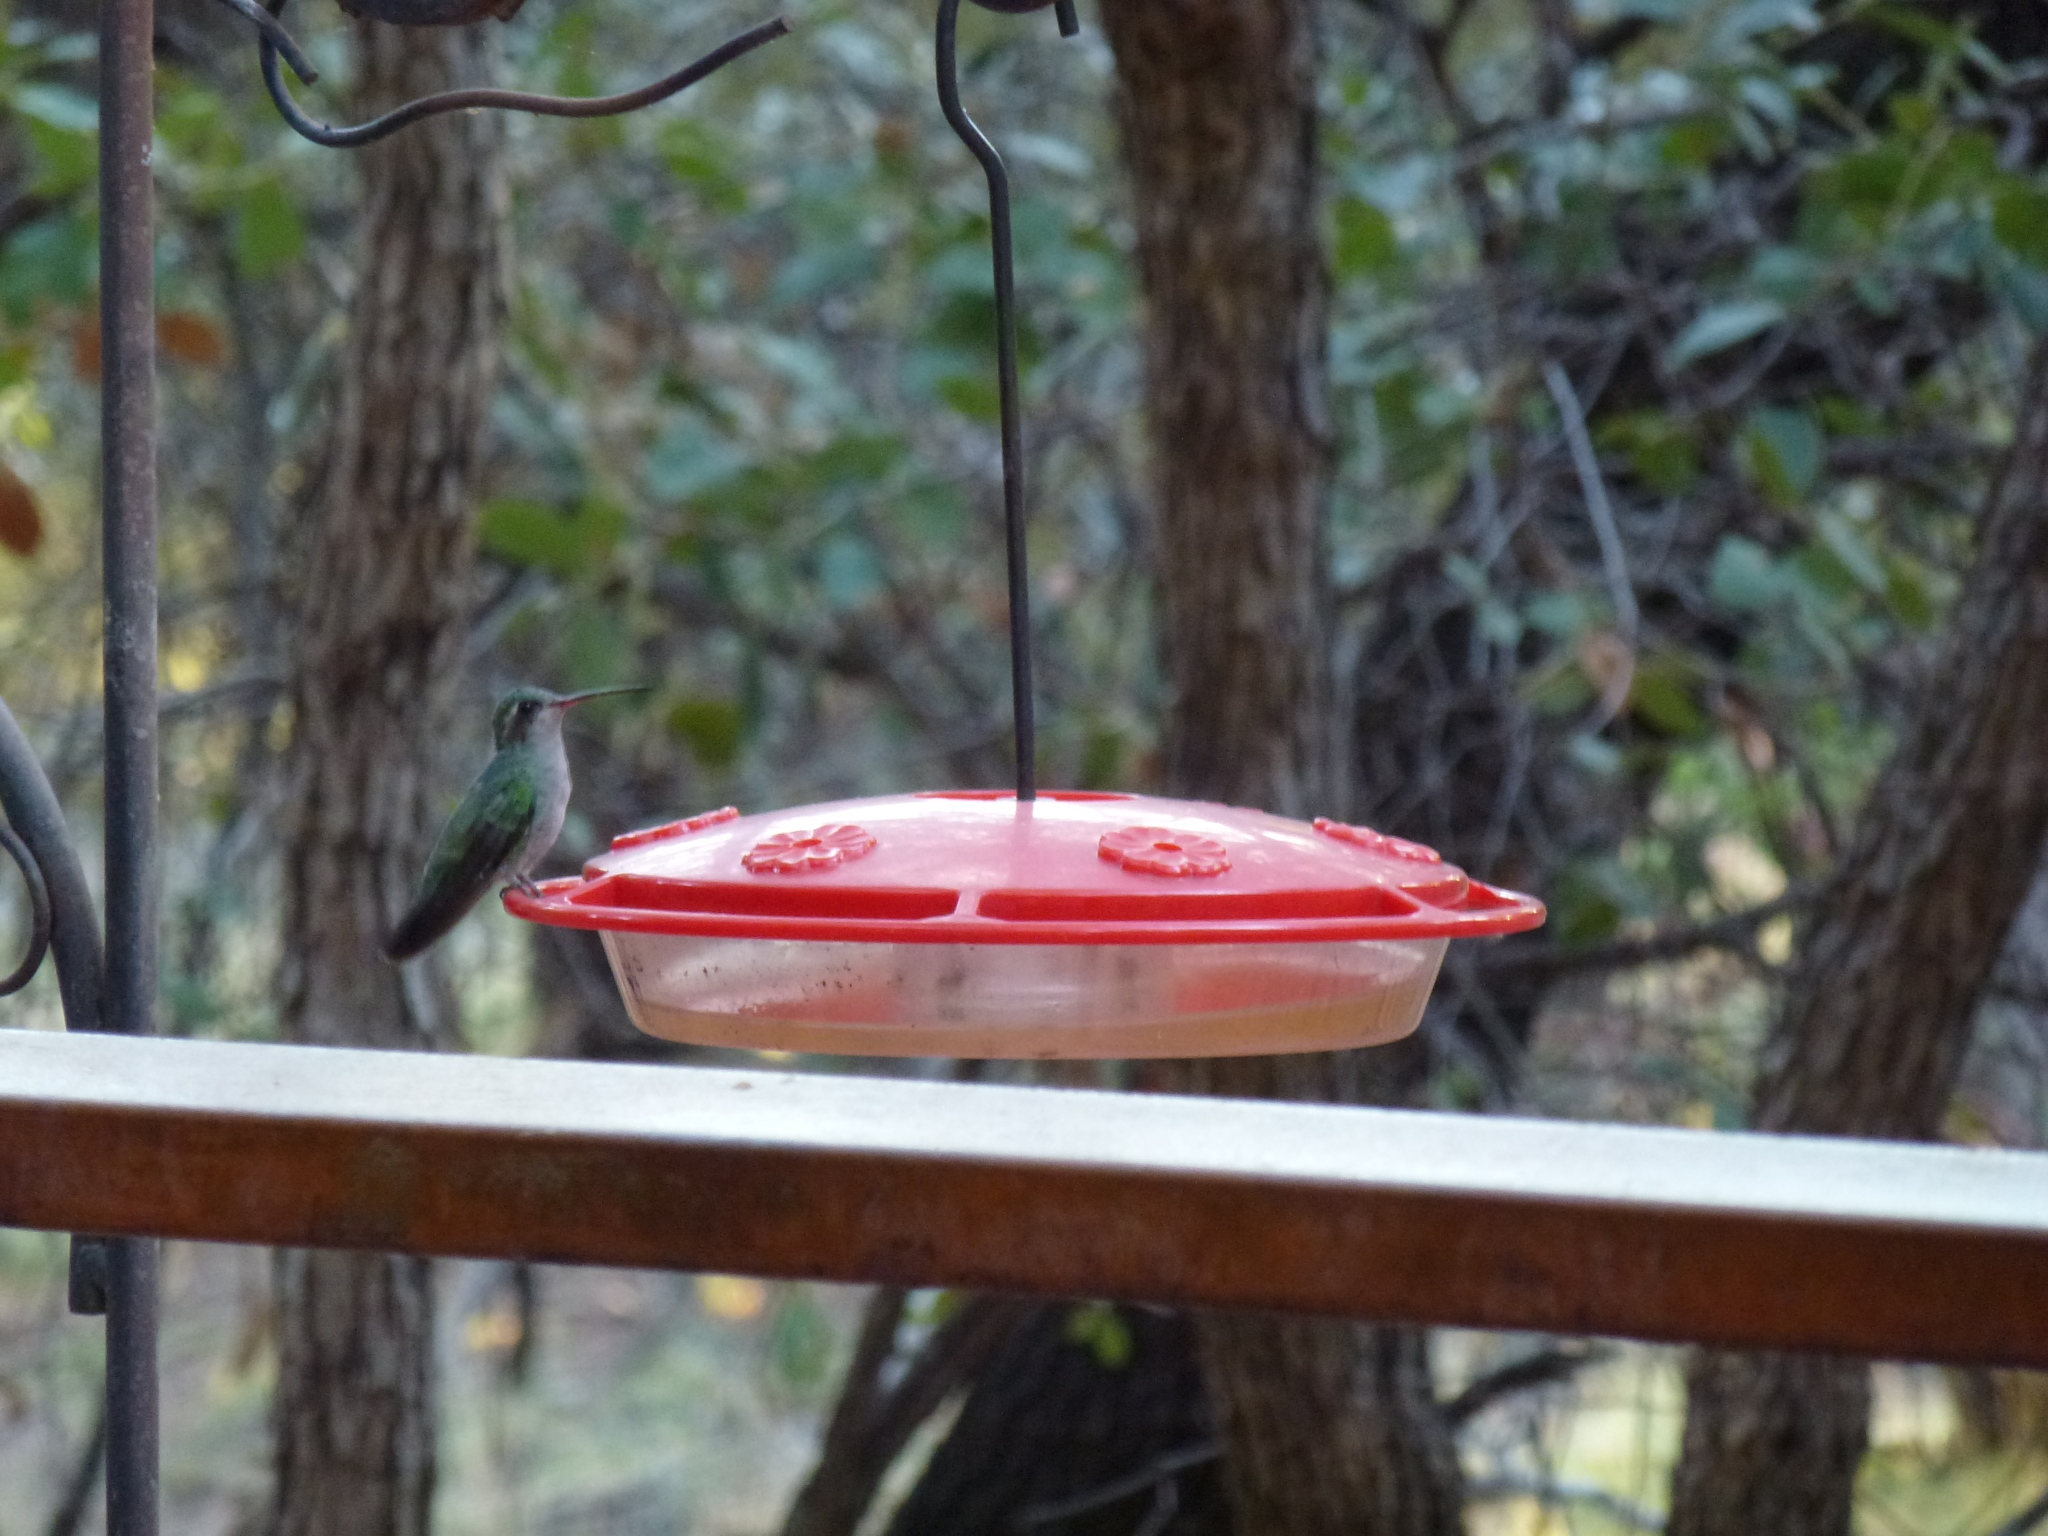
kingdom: Animalia
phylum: Chordata
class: Aves
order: Apodiformes
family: Trochilidae
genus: Cynanthus
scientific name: Cynanthus latirostris
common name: Broad-billed hummingbird
